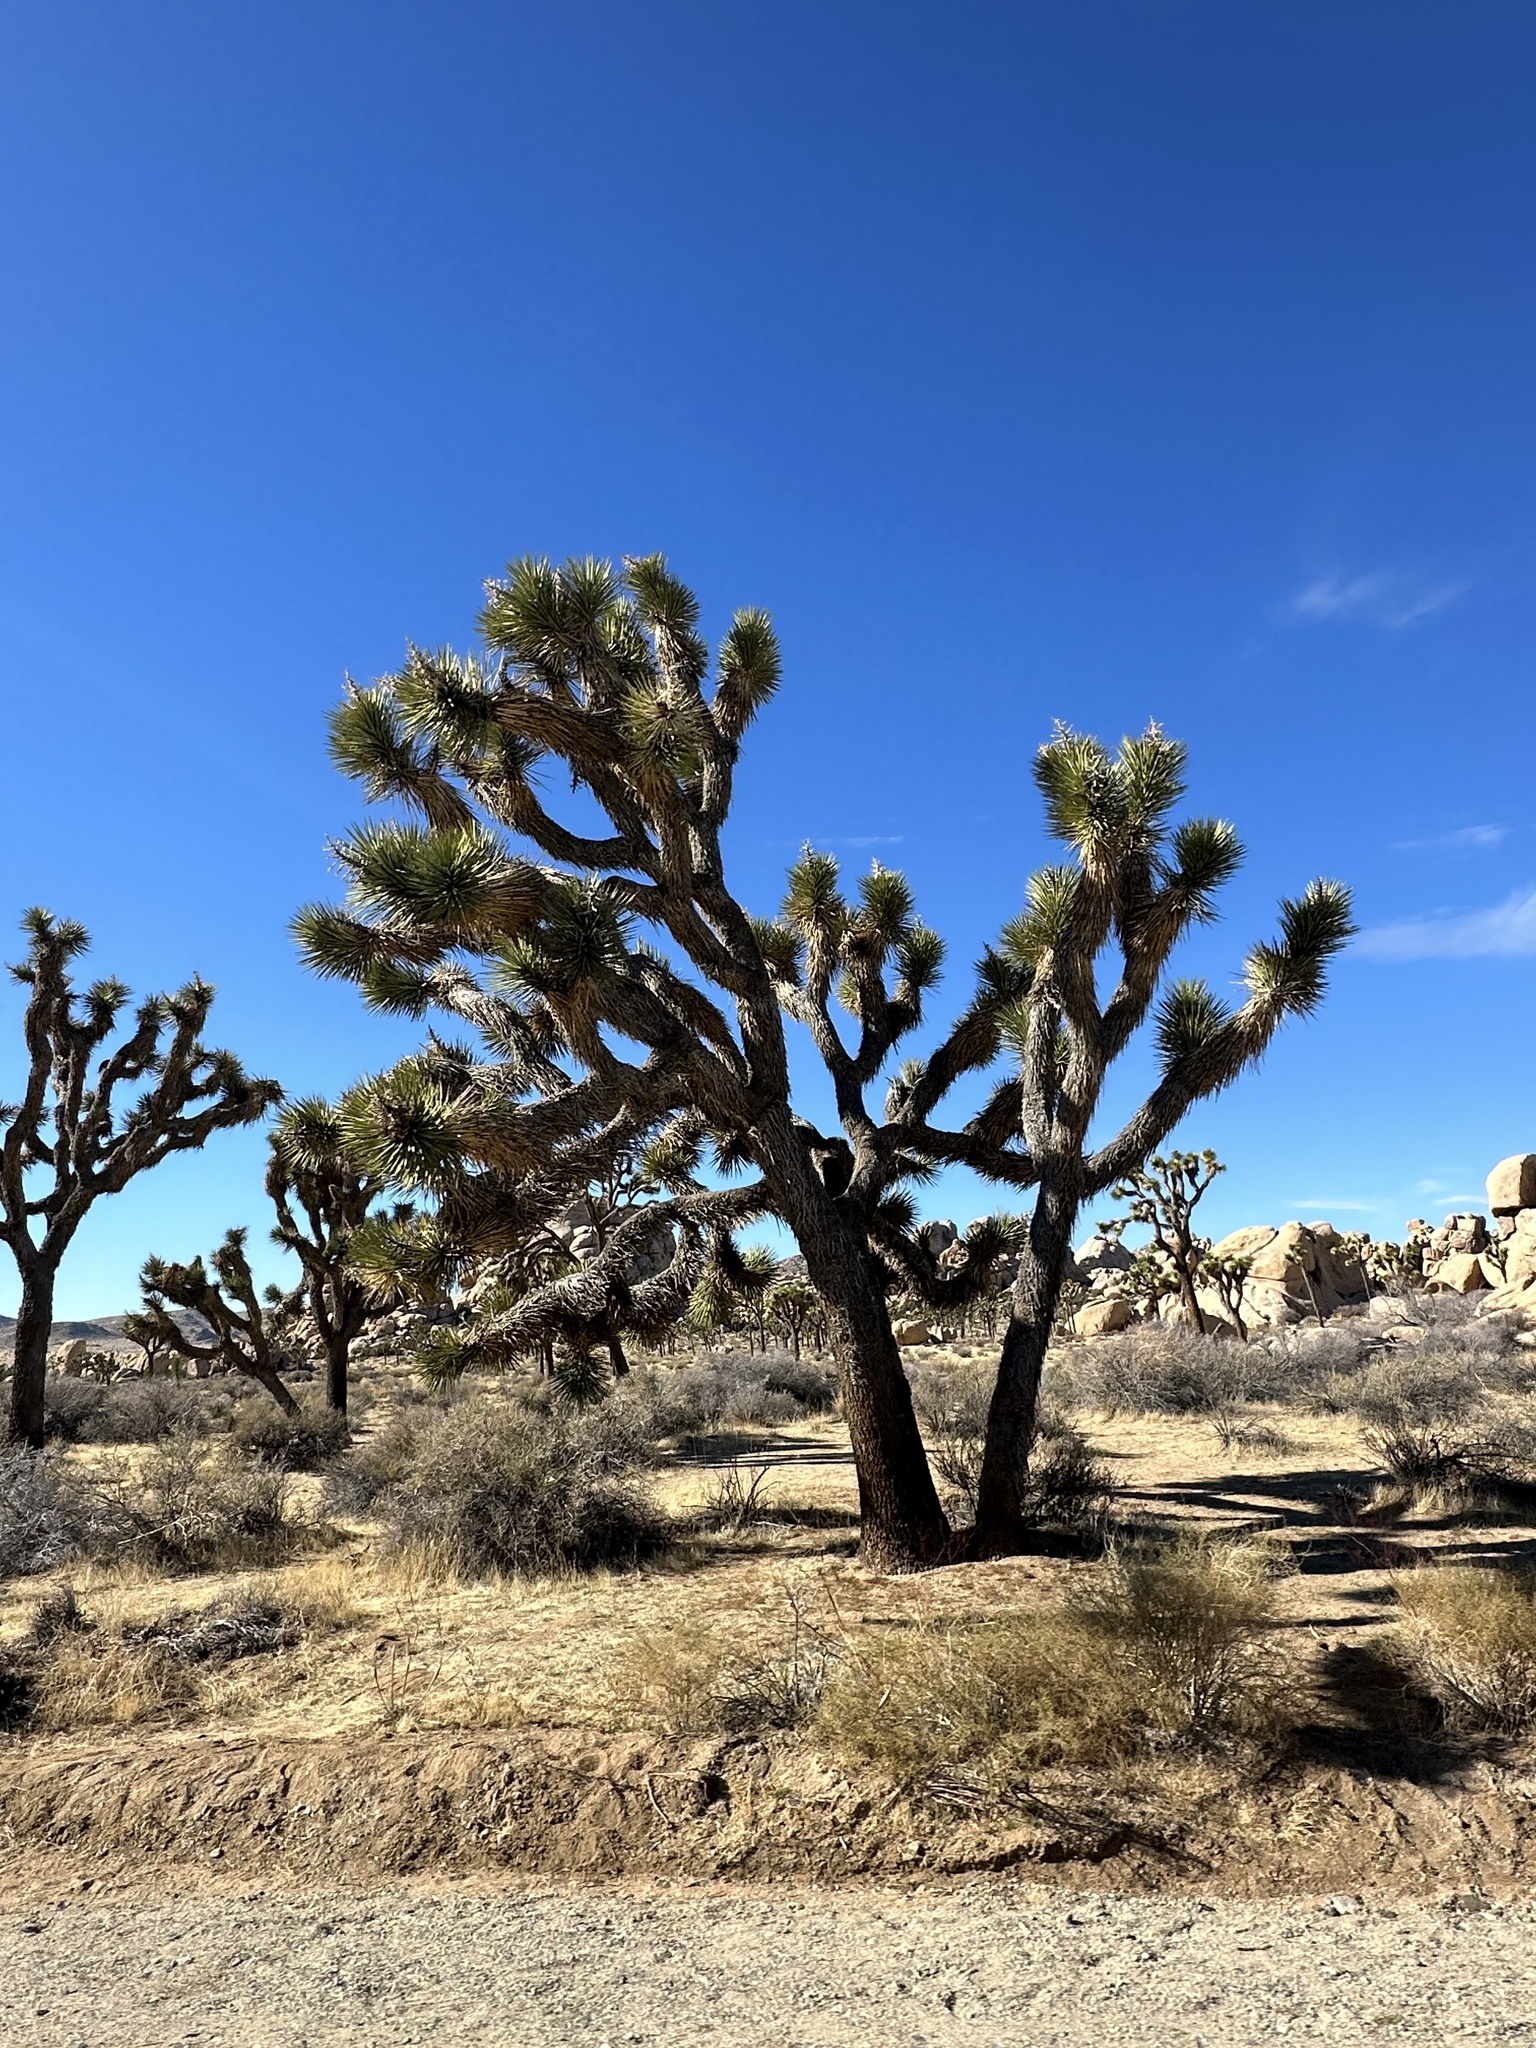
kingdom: Plantae
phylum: Tracheophyta
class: Liliopsida
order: Asparagales
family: Asparagaceae
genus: Yucca
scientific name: Yucca brevifolia
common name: Joshua tree
